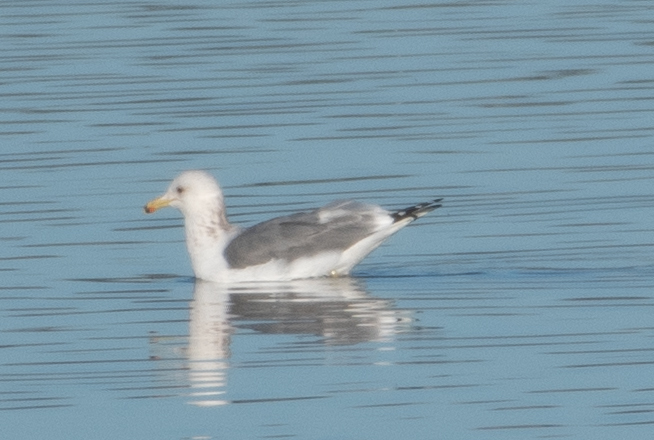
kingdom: Animalia
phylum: Chordata
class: Aves
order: Charadriiformes
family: Laridae
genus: Larus
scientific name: Larus californicus
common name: California gull
